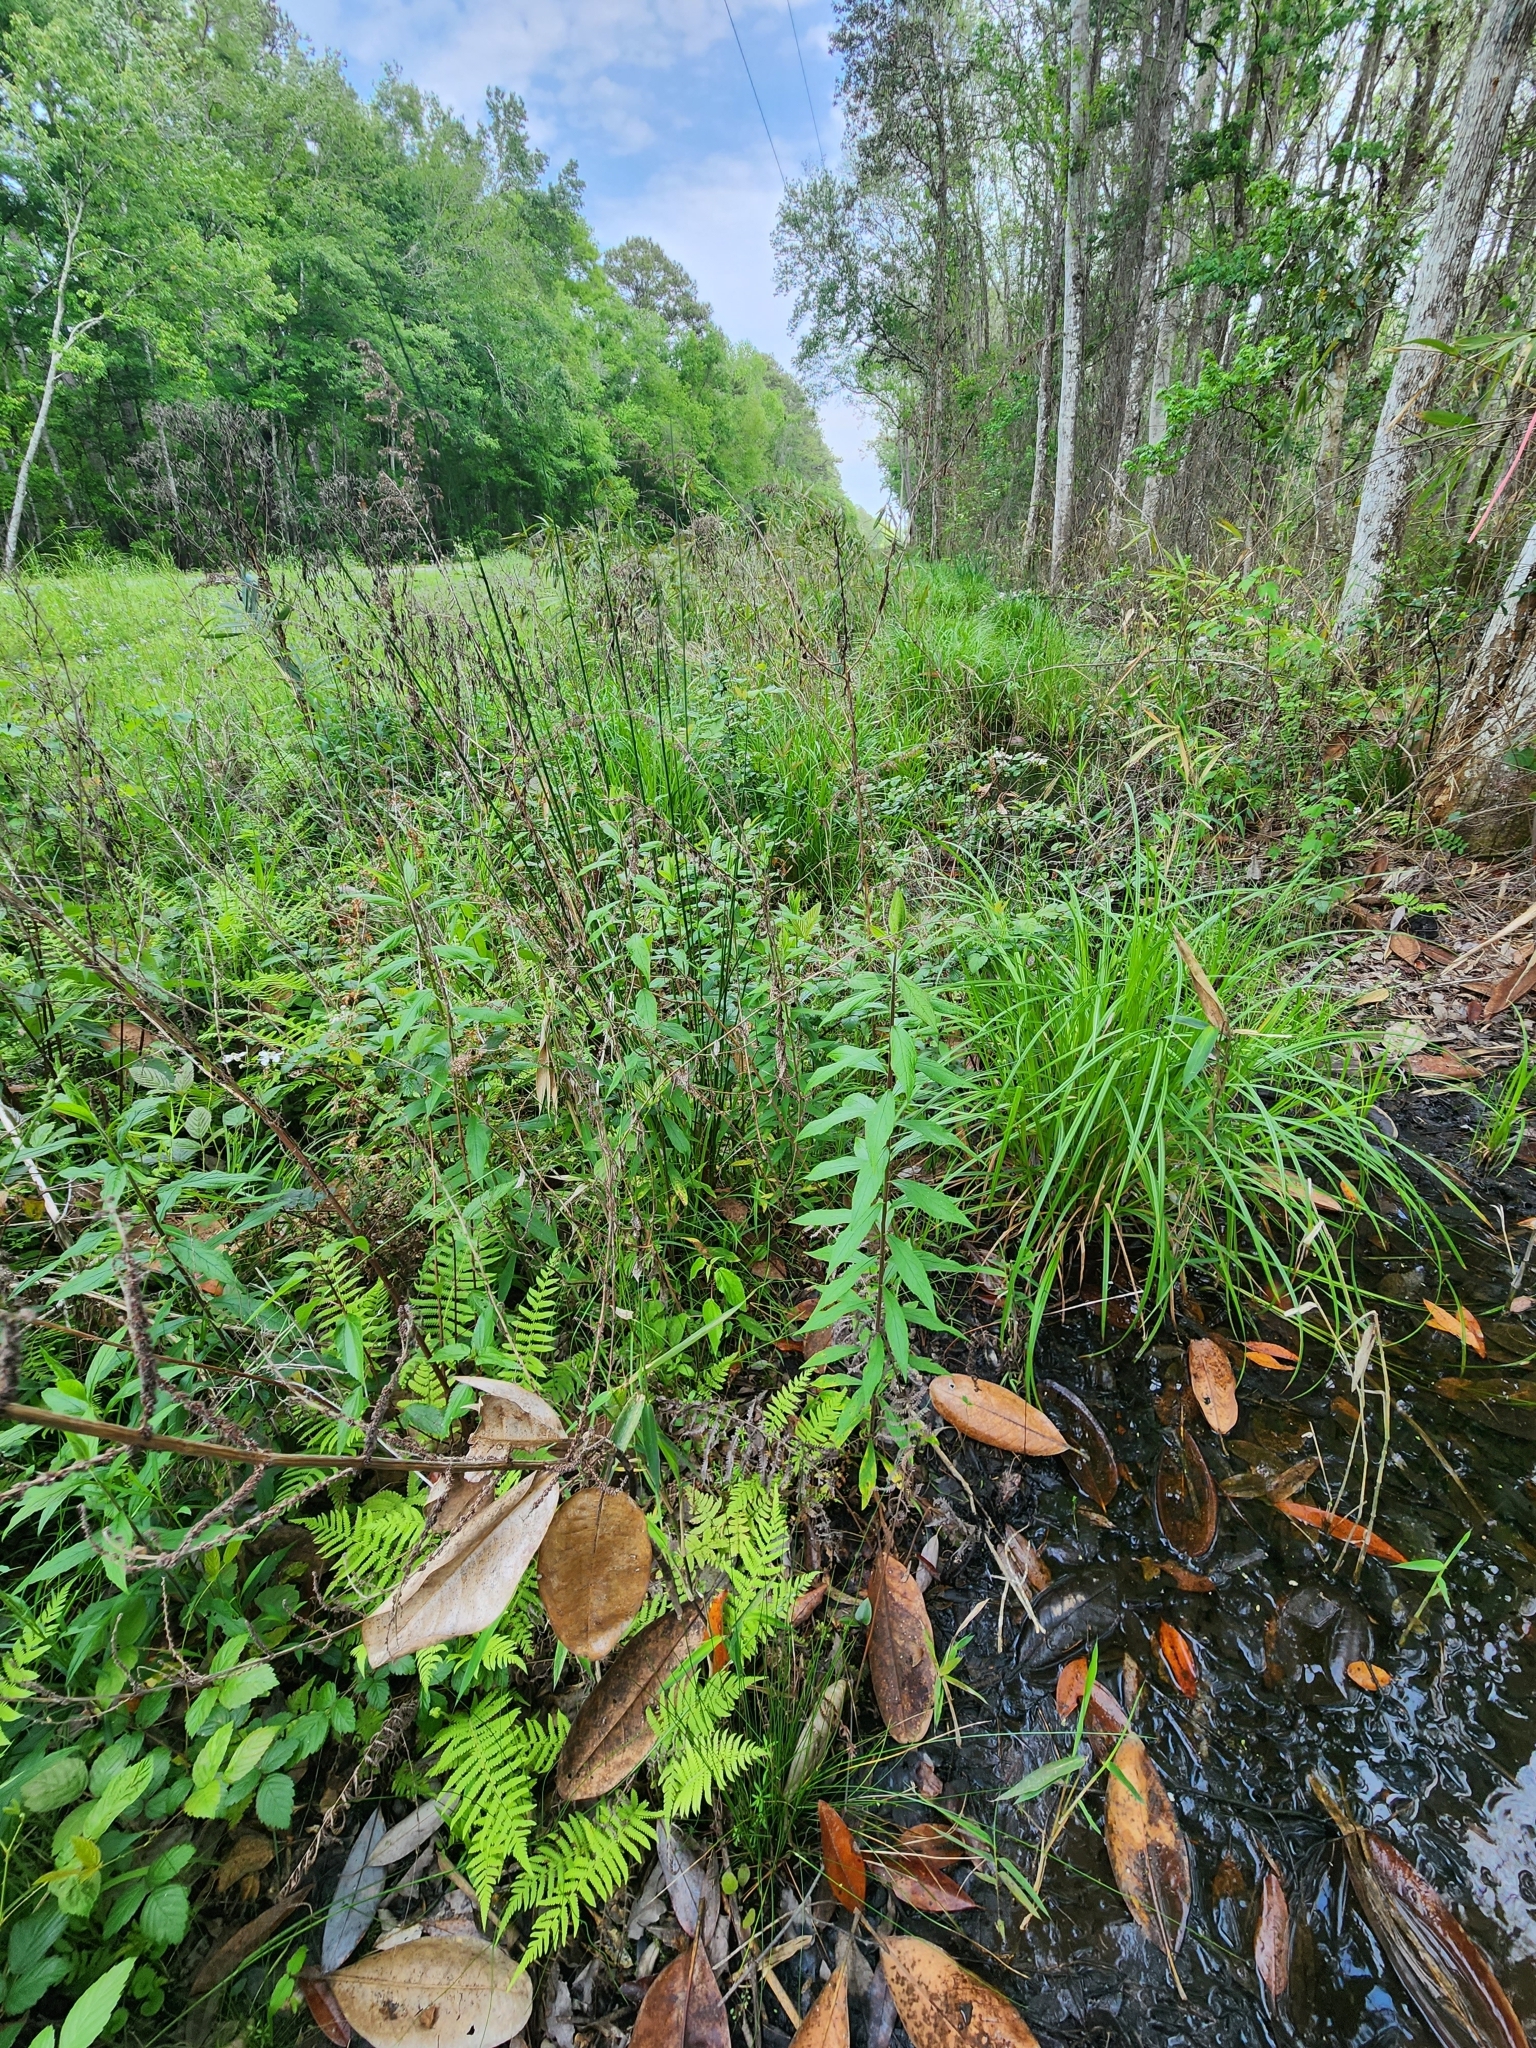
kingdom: Plantae
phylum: Tracheophyta
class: Magnoliopsida
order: Asterales
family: Asteraceae
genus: Solidago
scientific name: Solidago rugosa
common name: Rough-stemmed goldenrod
